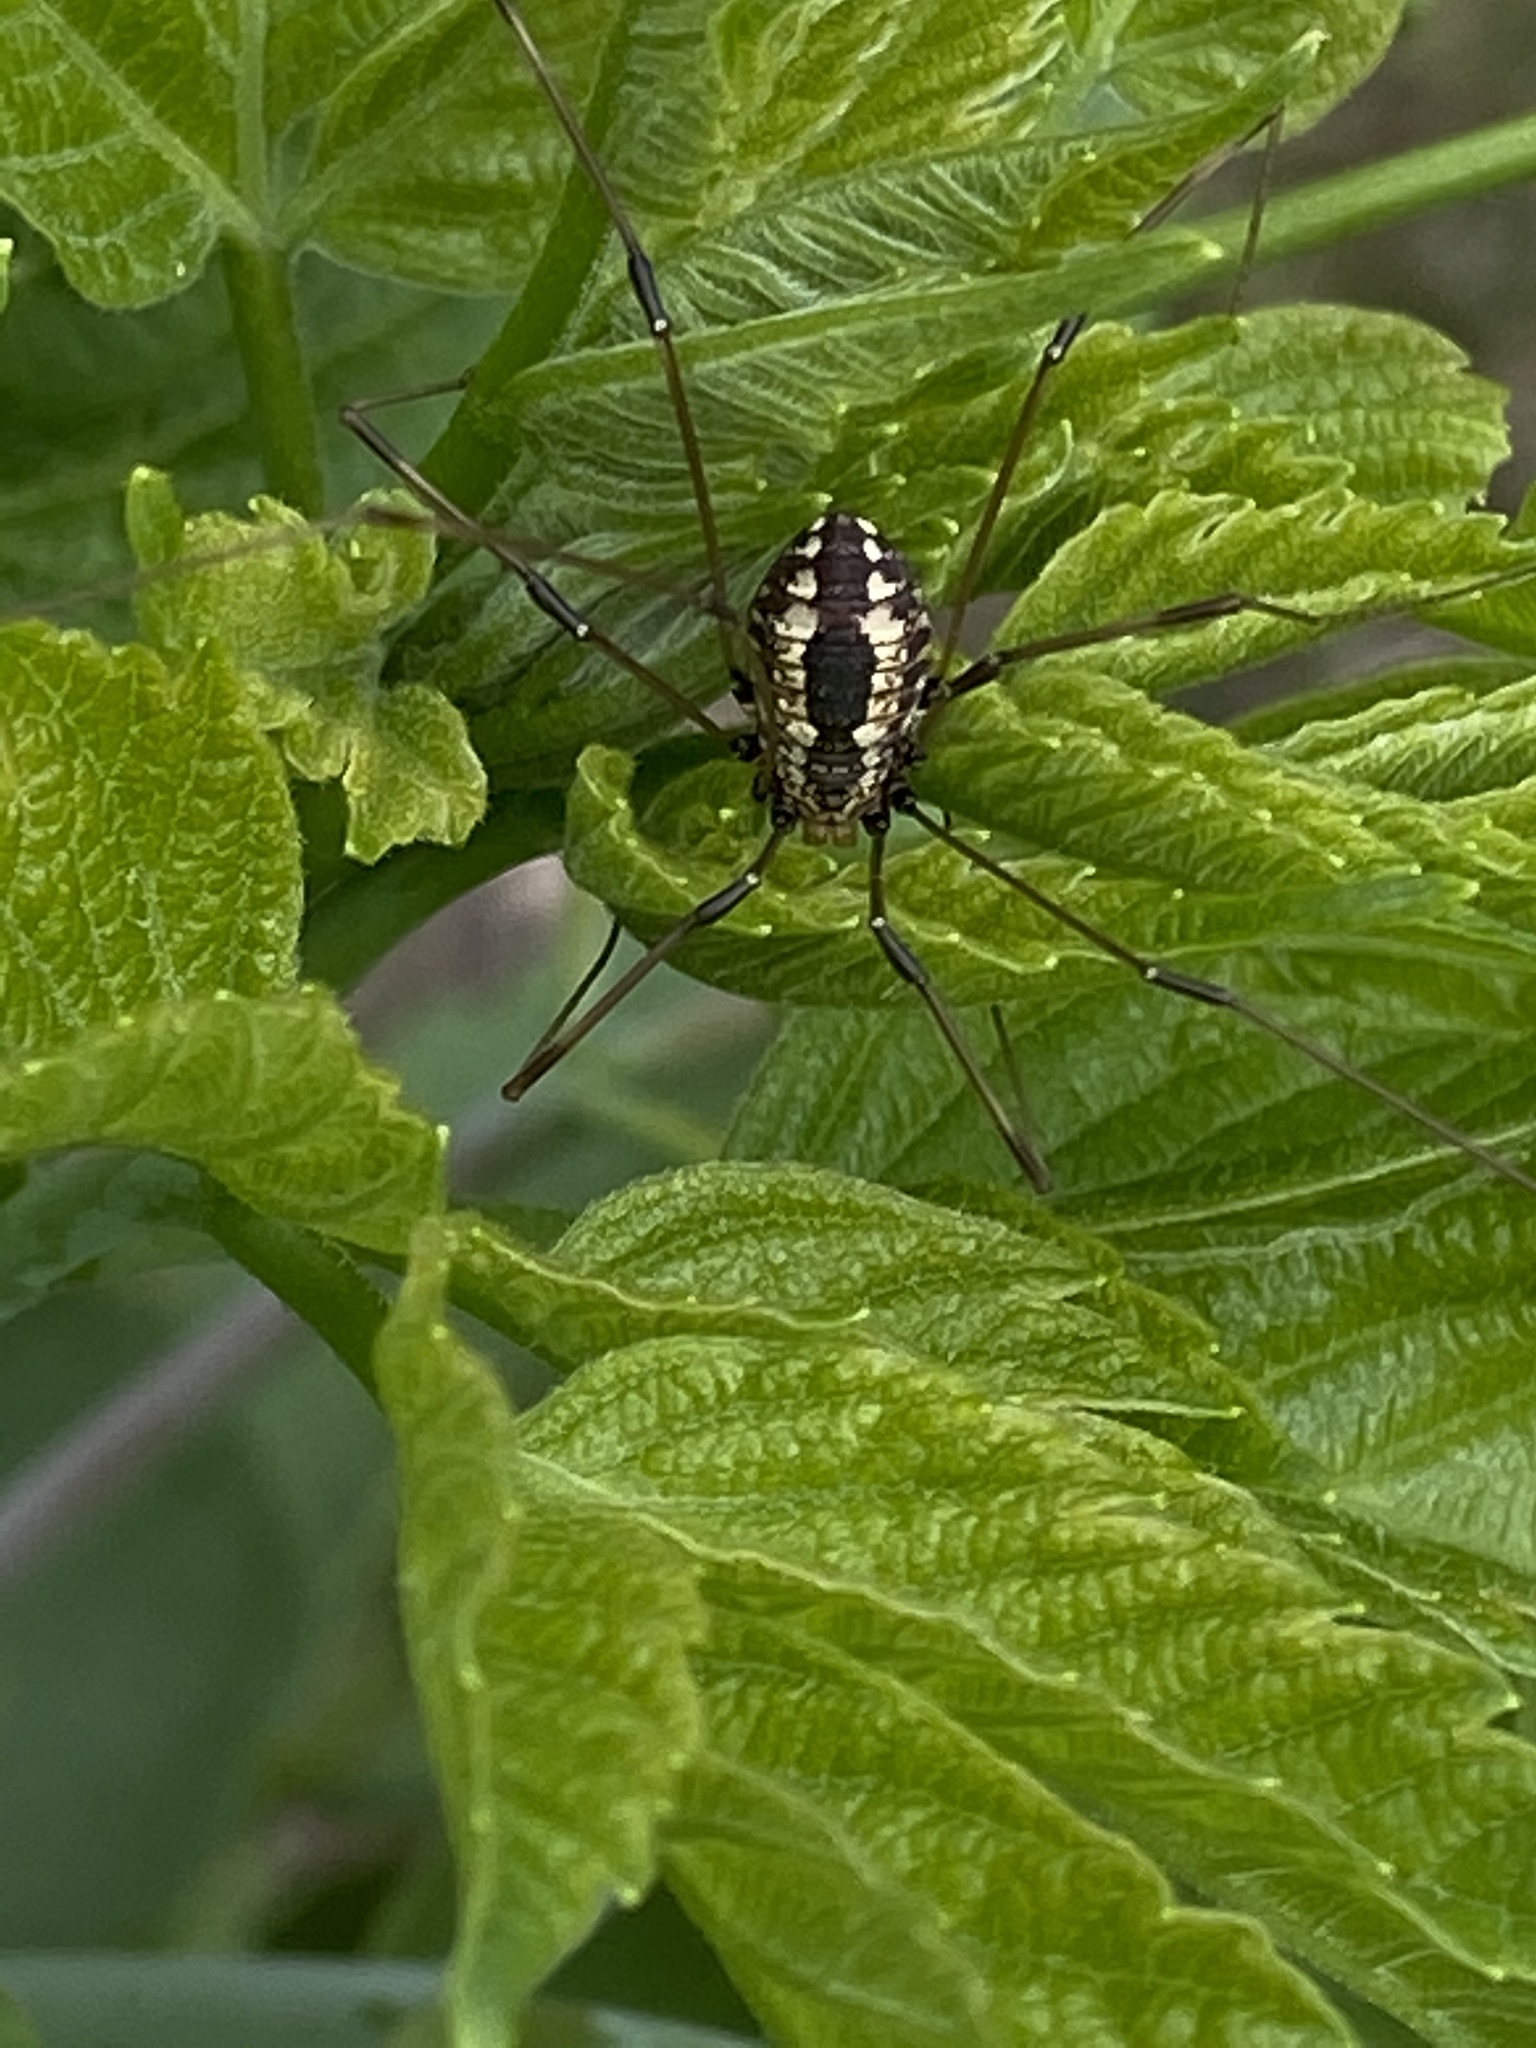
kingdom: Animalia
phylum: Arthropoda
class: Arachnida
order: Opiliones
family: Sclerosomatidae
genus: Leiobunum
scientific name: Leiobunum vittatum
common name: Eastern harvestman
